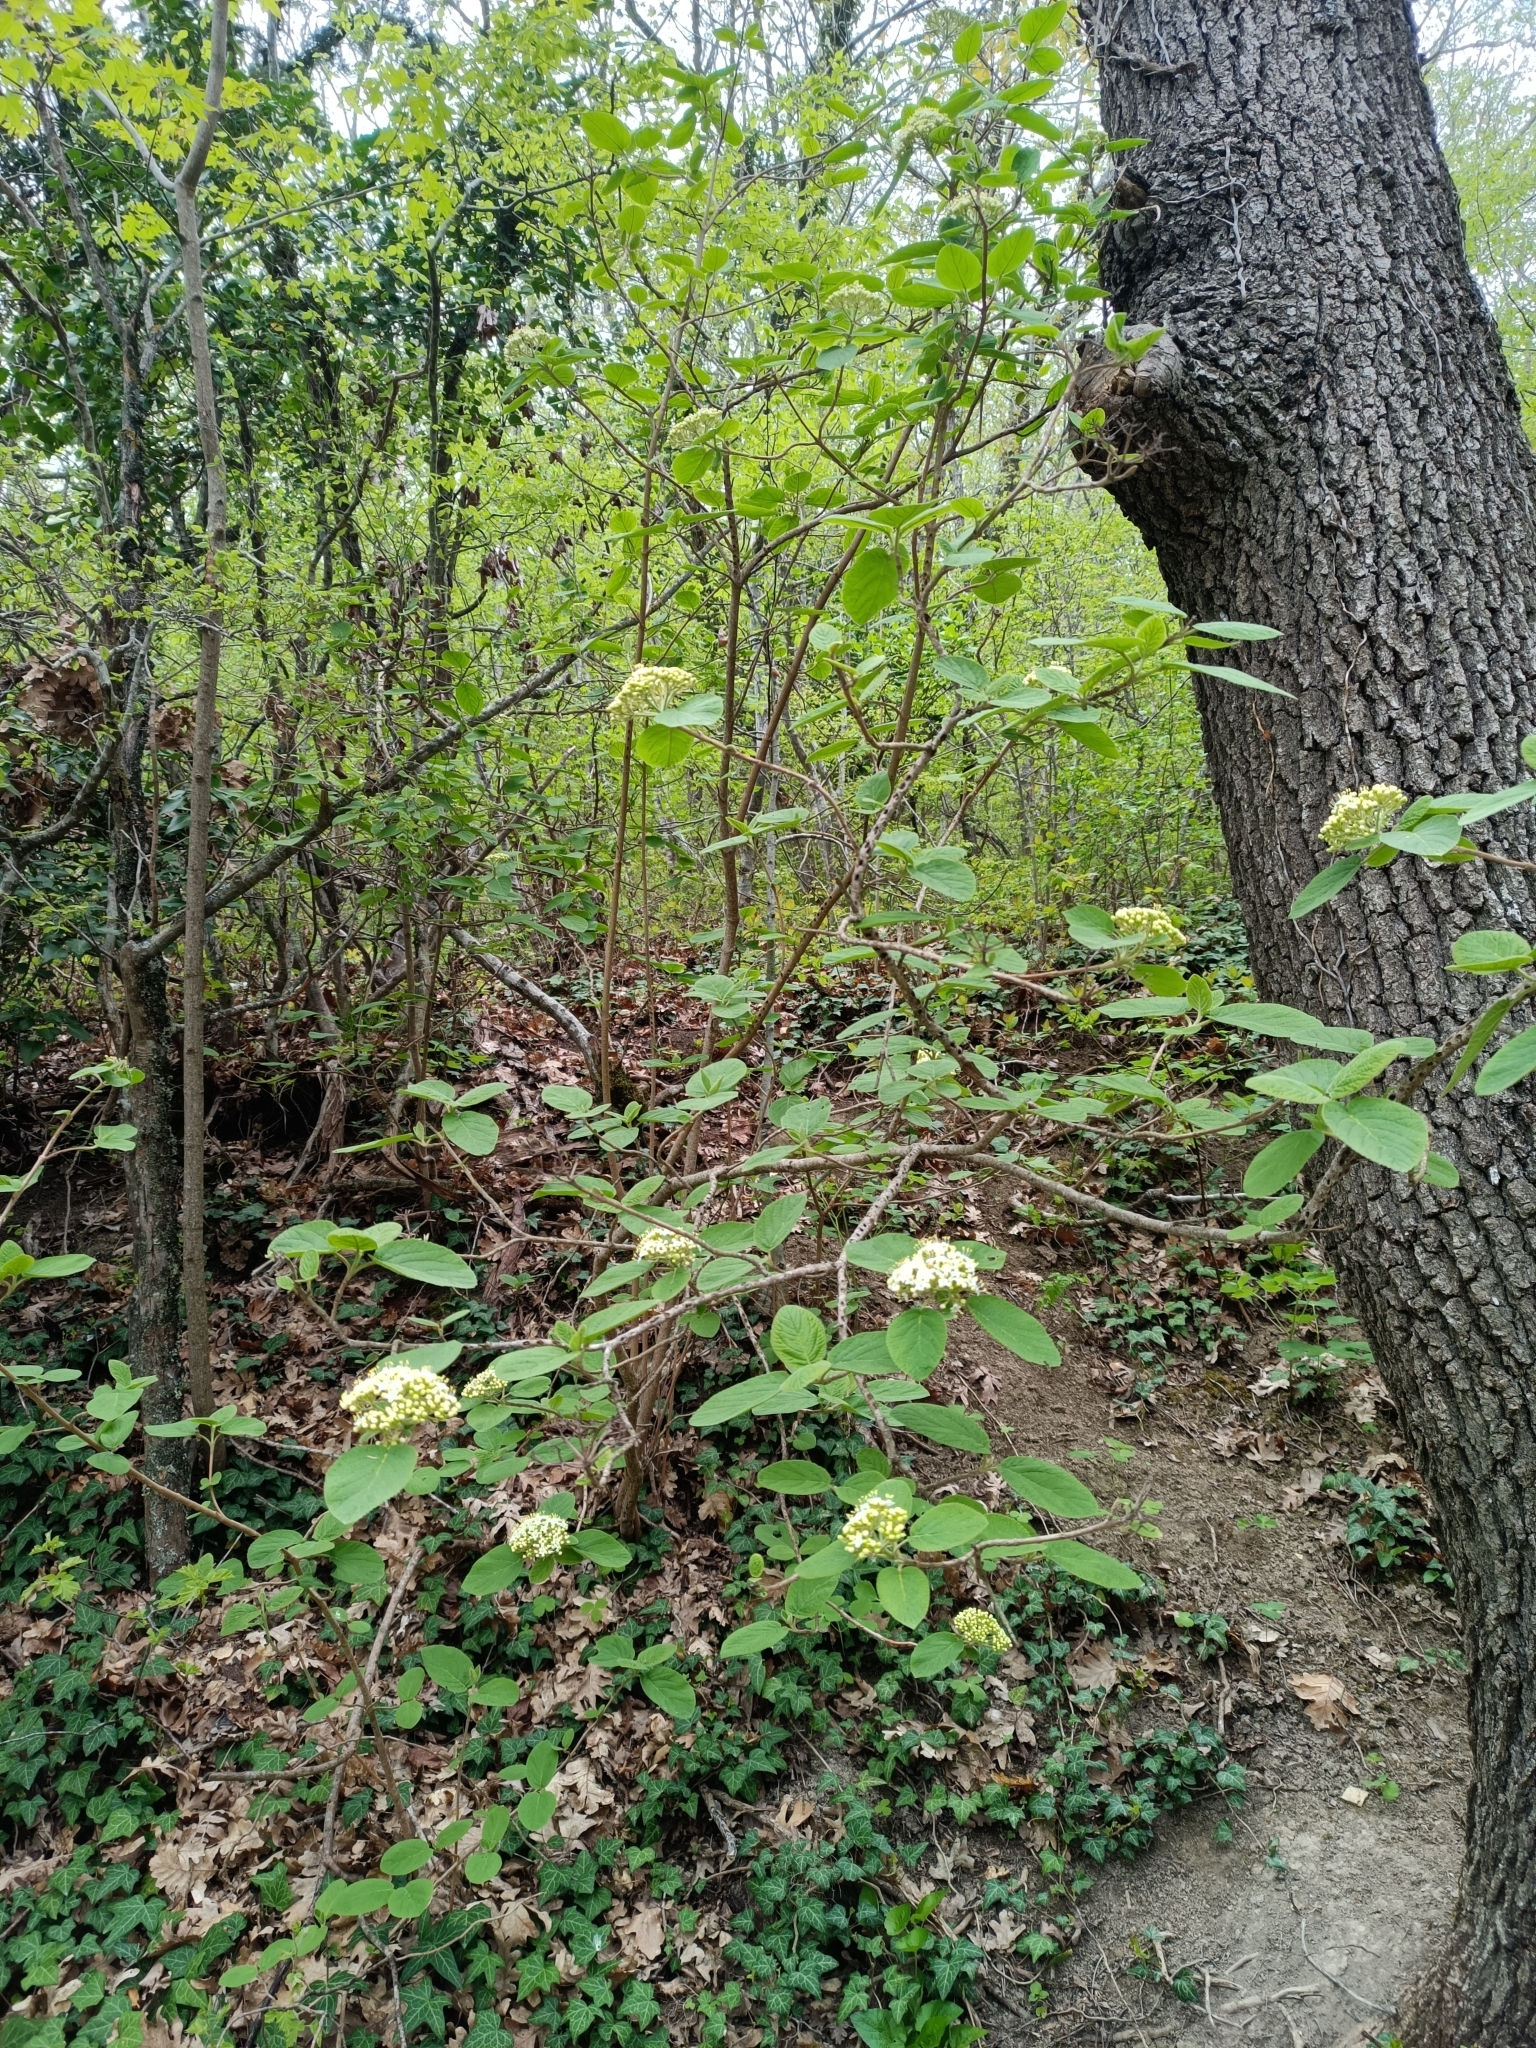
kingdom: Plantae
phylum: Tracheophyta
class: Magnoliopsida
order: Dipsacales
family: Viburnaceae
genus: Viburnum
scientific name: Viburnum lantana
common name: Wayfaring tree
